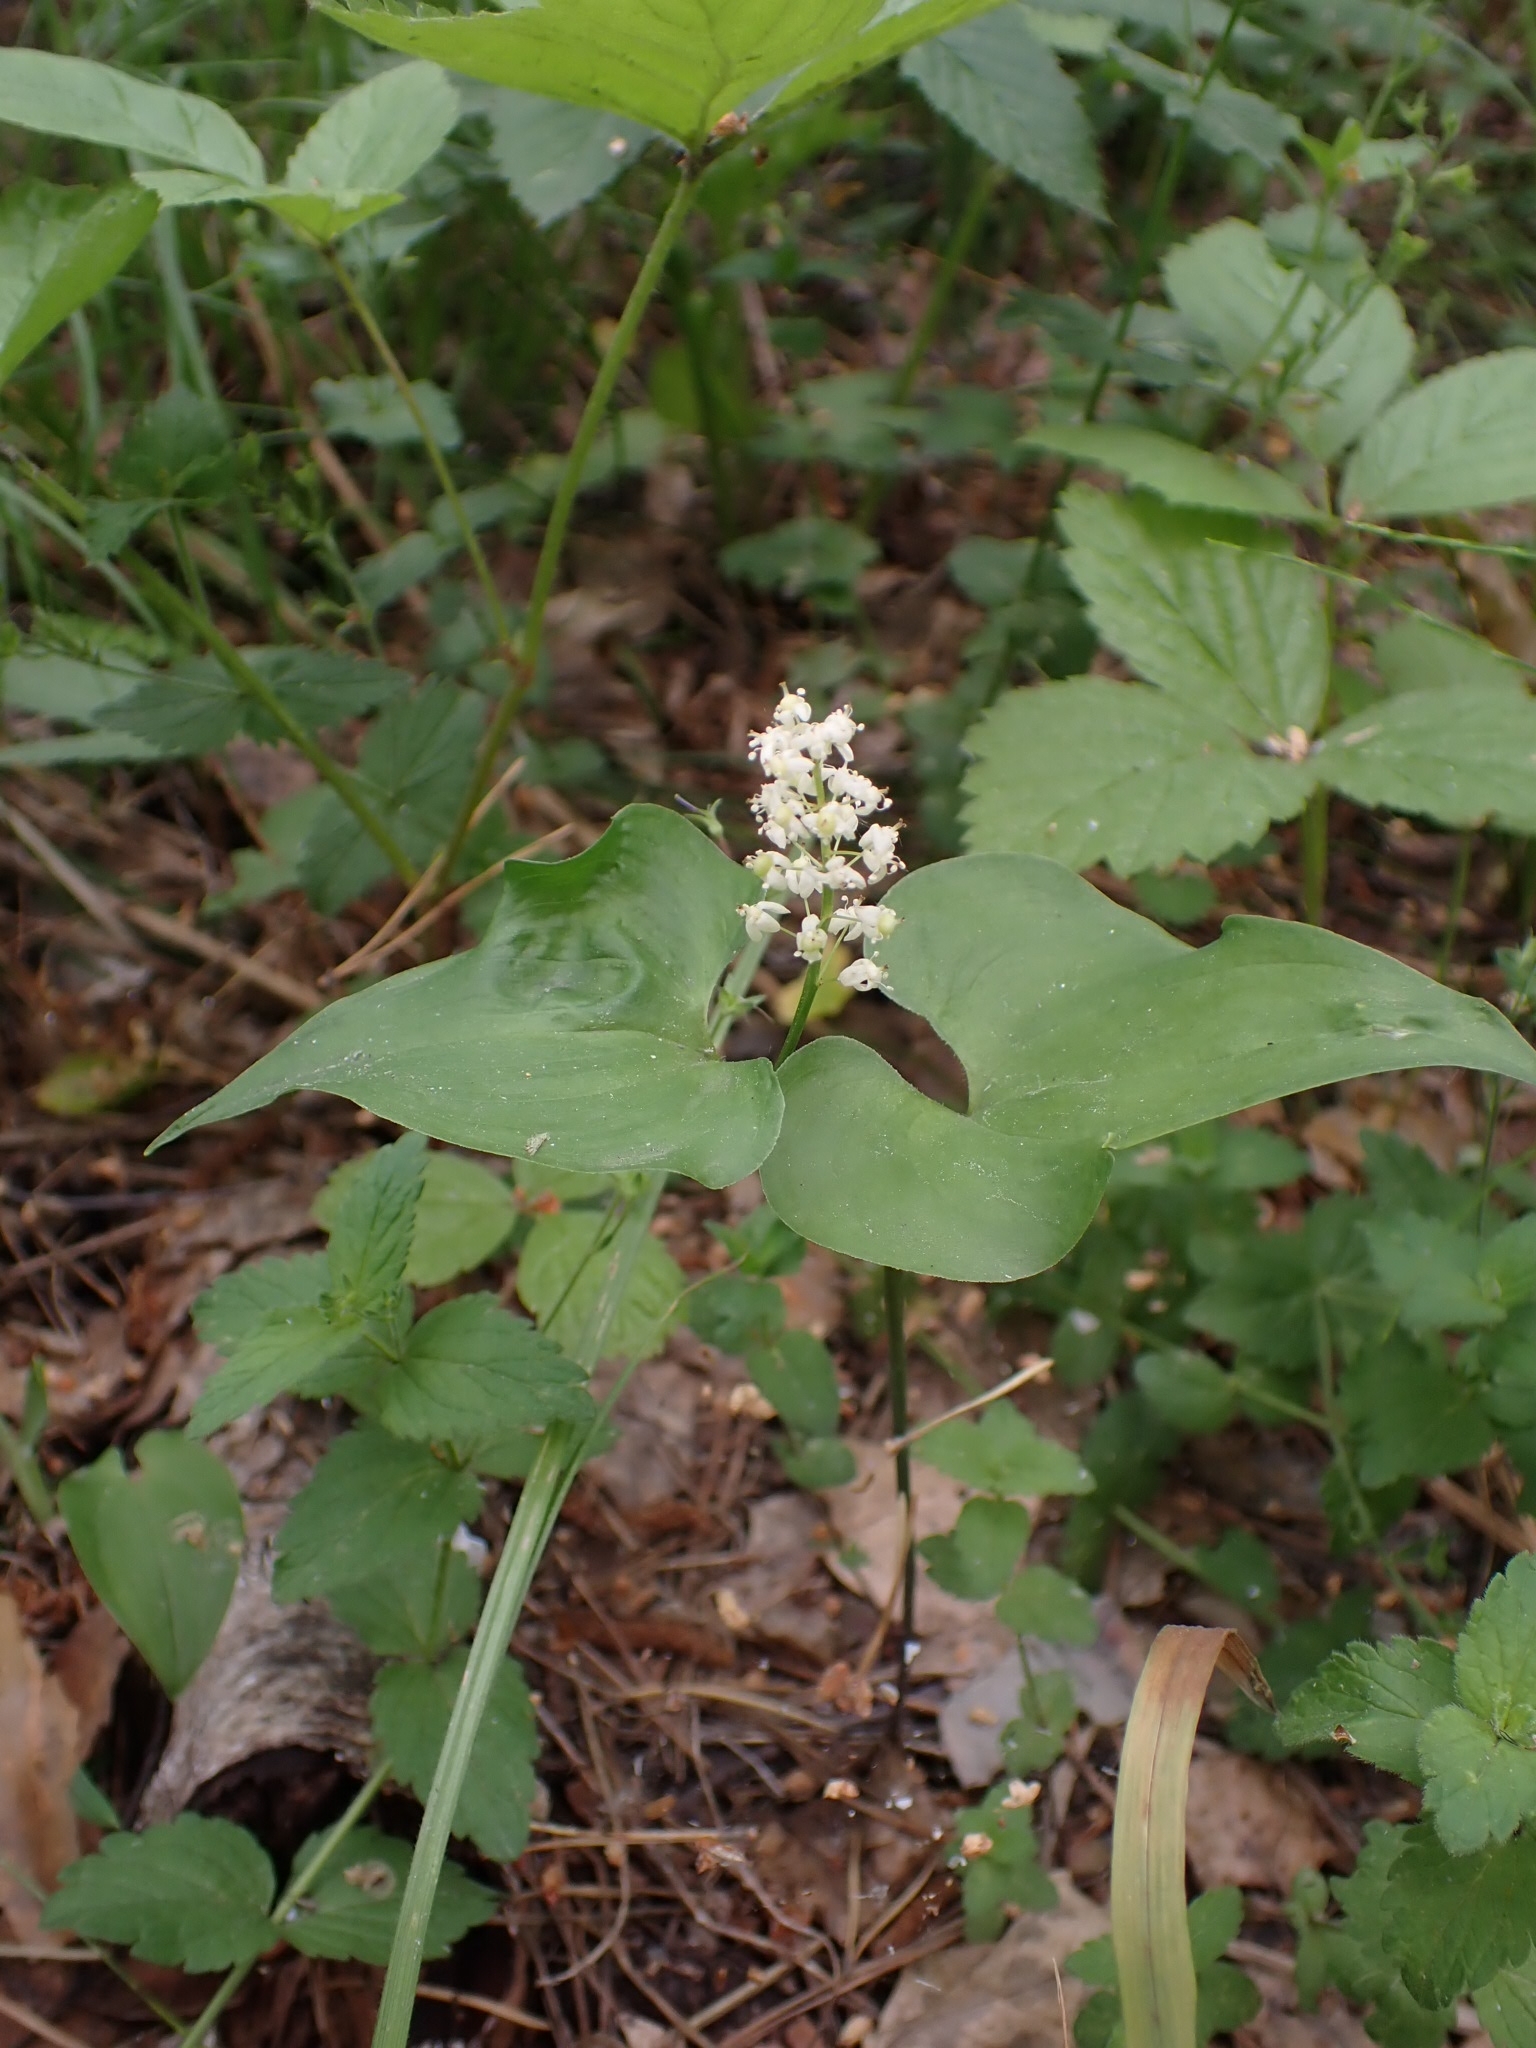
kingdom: Plantae
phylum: Tracheophyta
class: Liliopsida
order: Asparagales
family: Asparagaceae
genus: Maianthemum
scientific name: Maianthemum bifolium
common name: May lily
